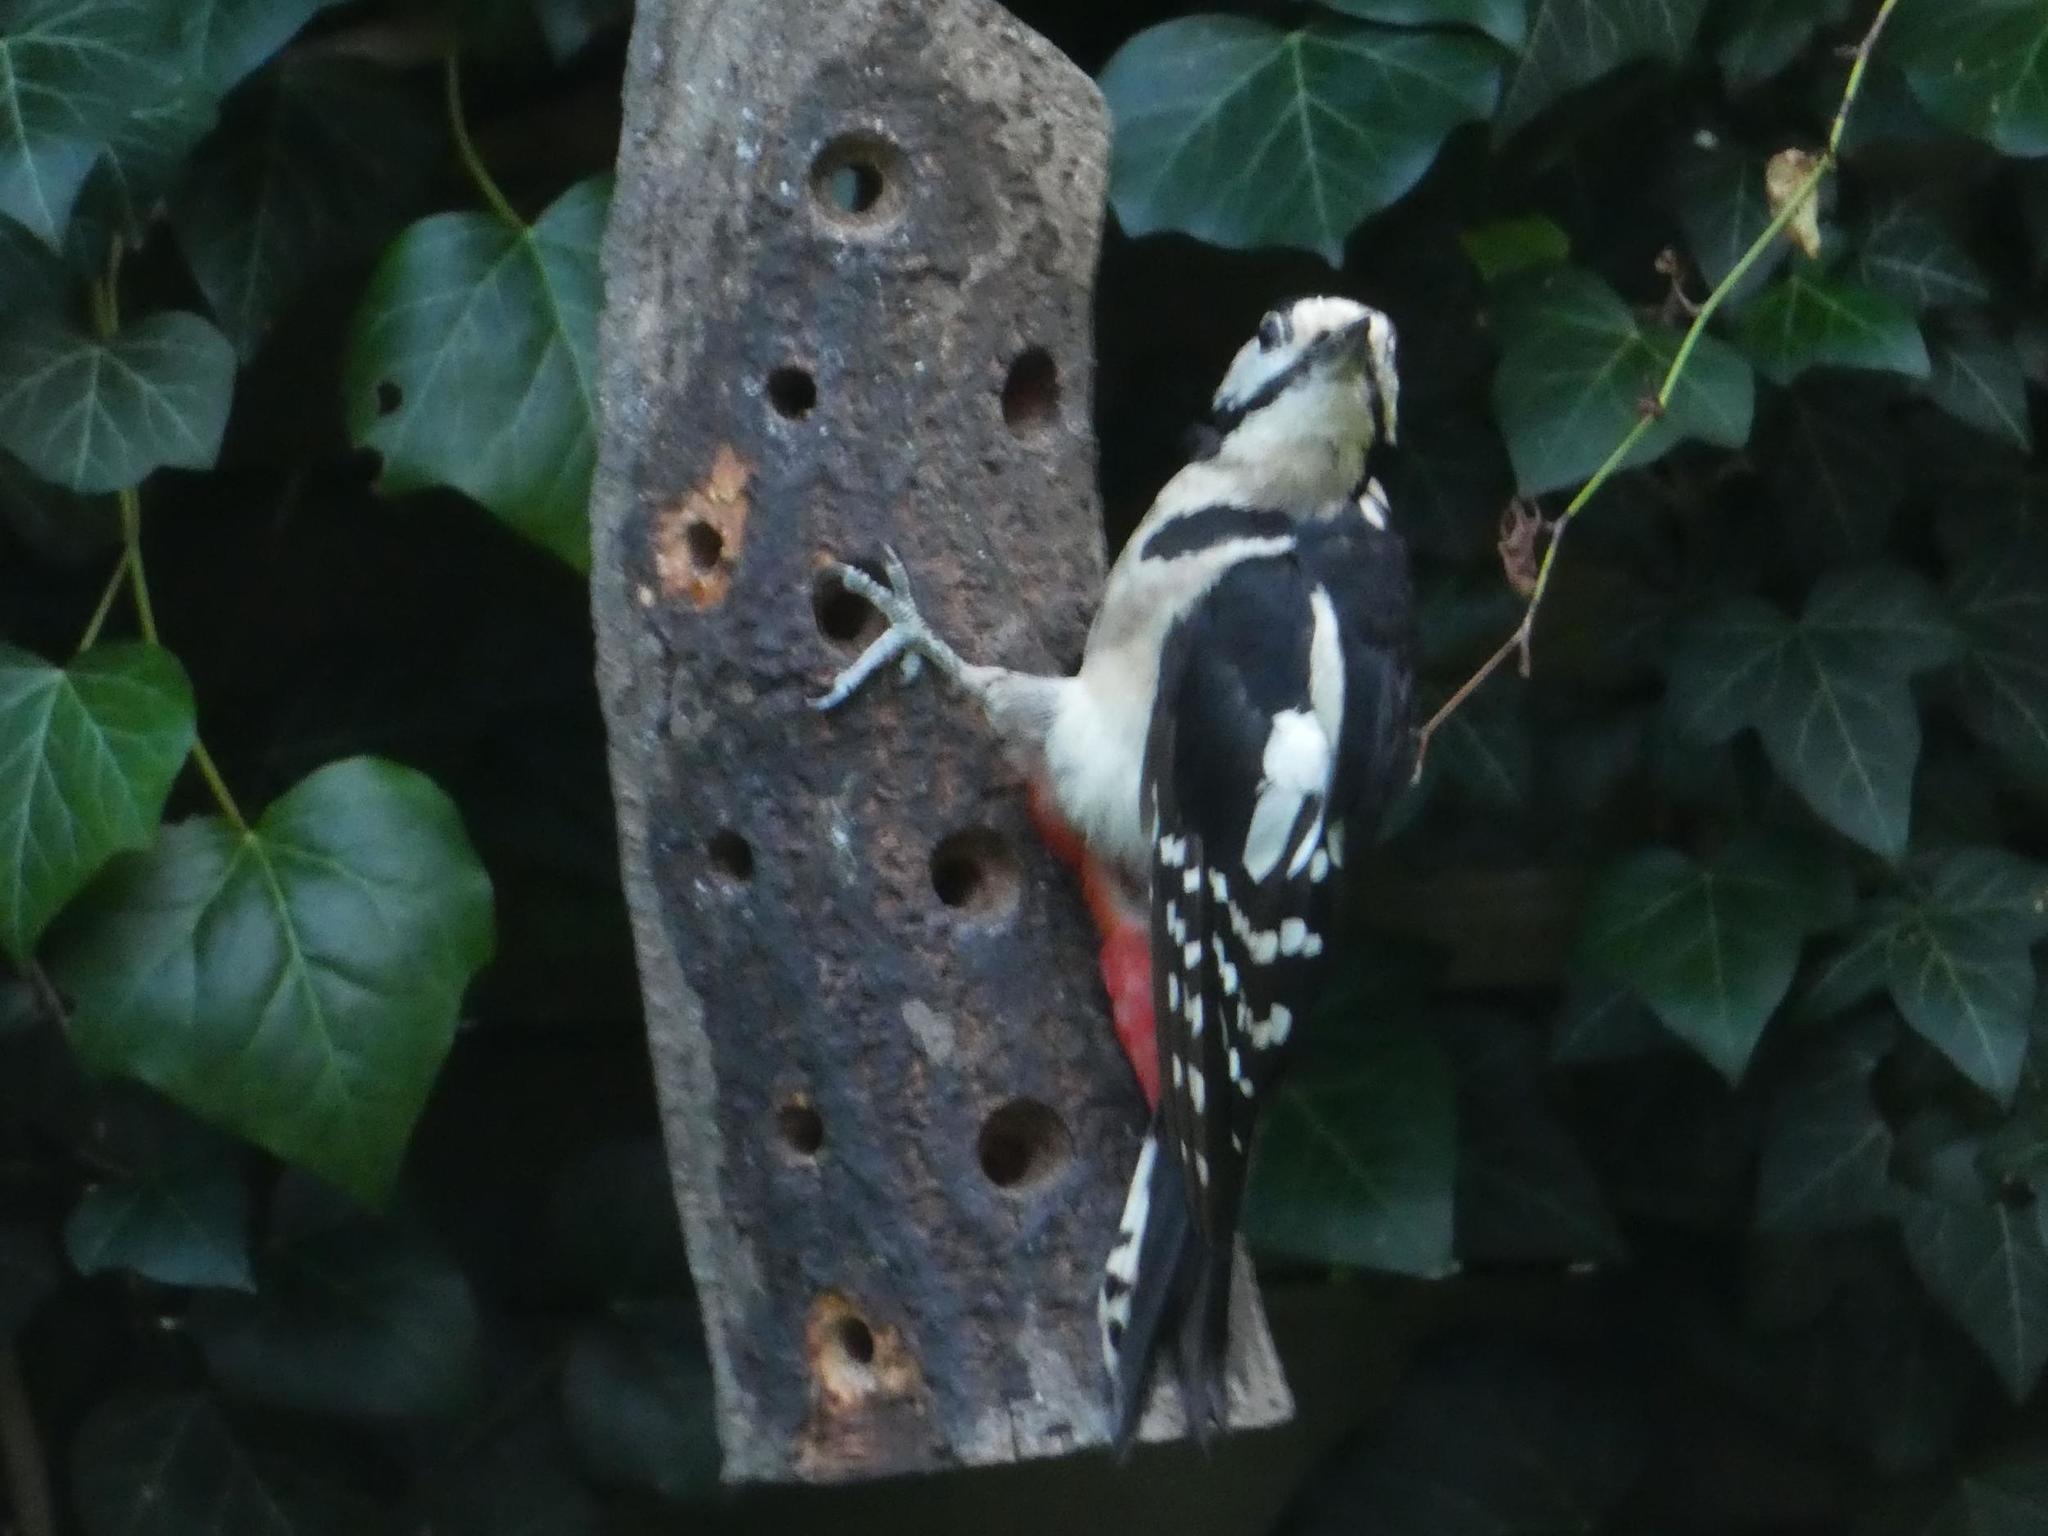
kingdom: Animalia
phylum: Chordata
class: Aves
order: Piciformes
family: Picidae
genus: Dendrocopos
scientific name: Dendrocopos major
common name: Great spotted woodpecker
